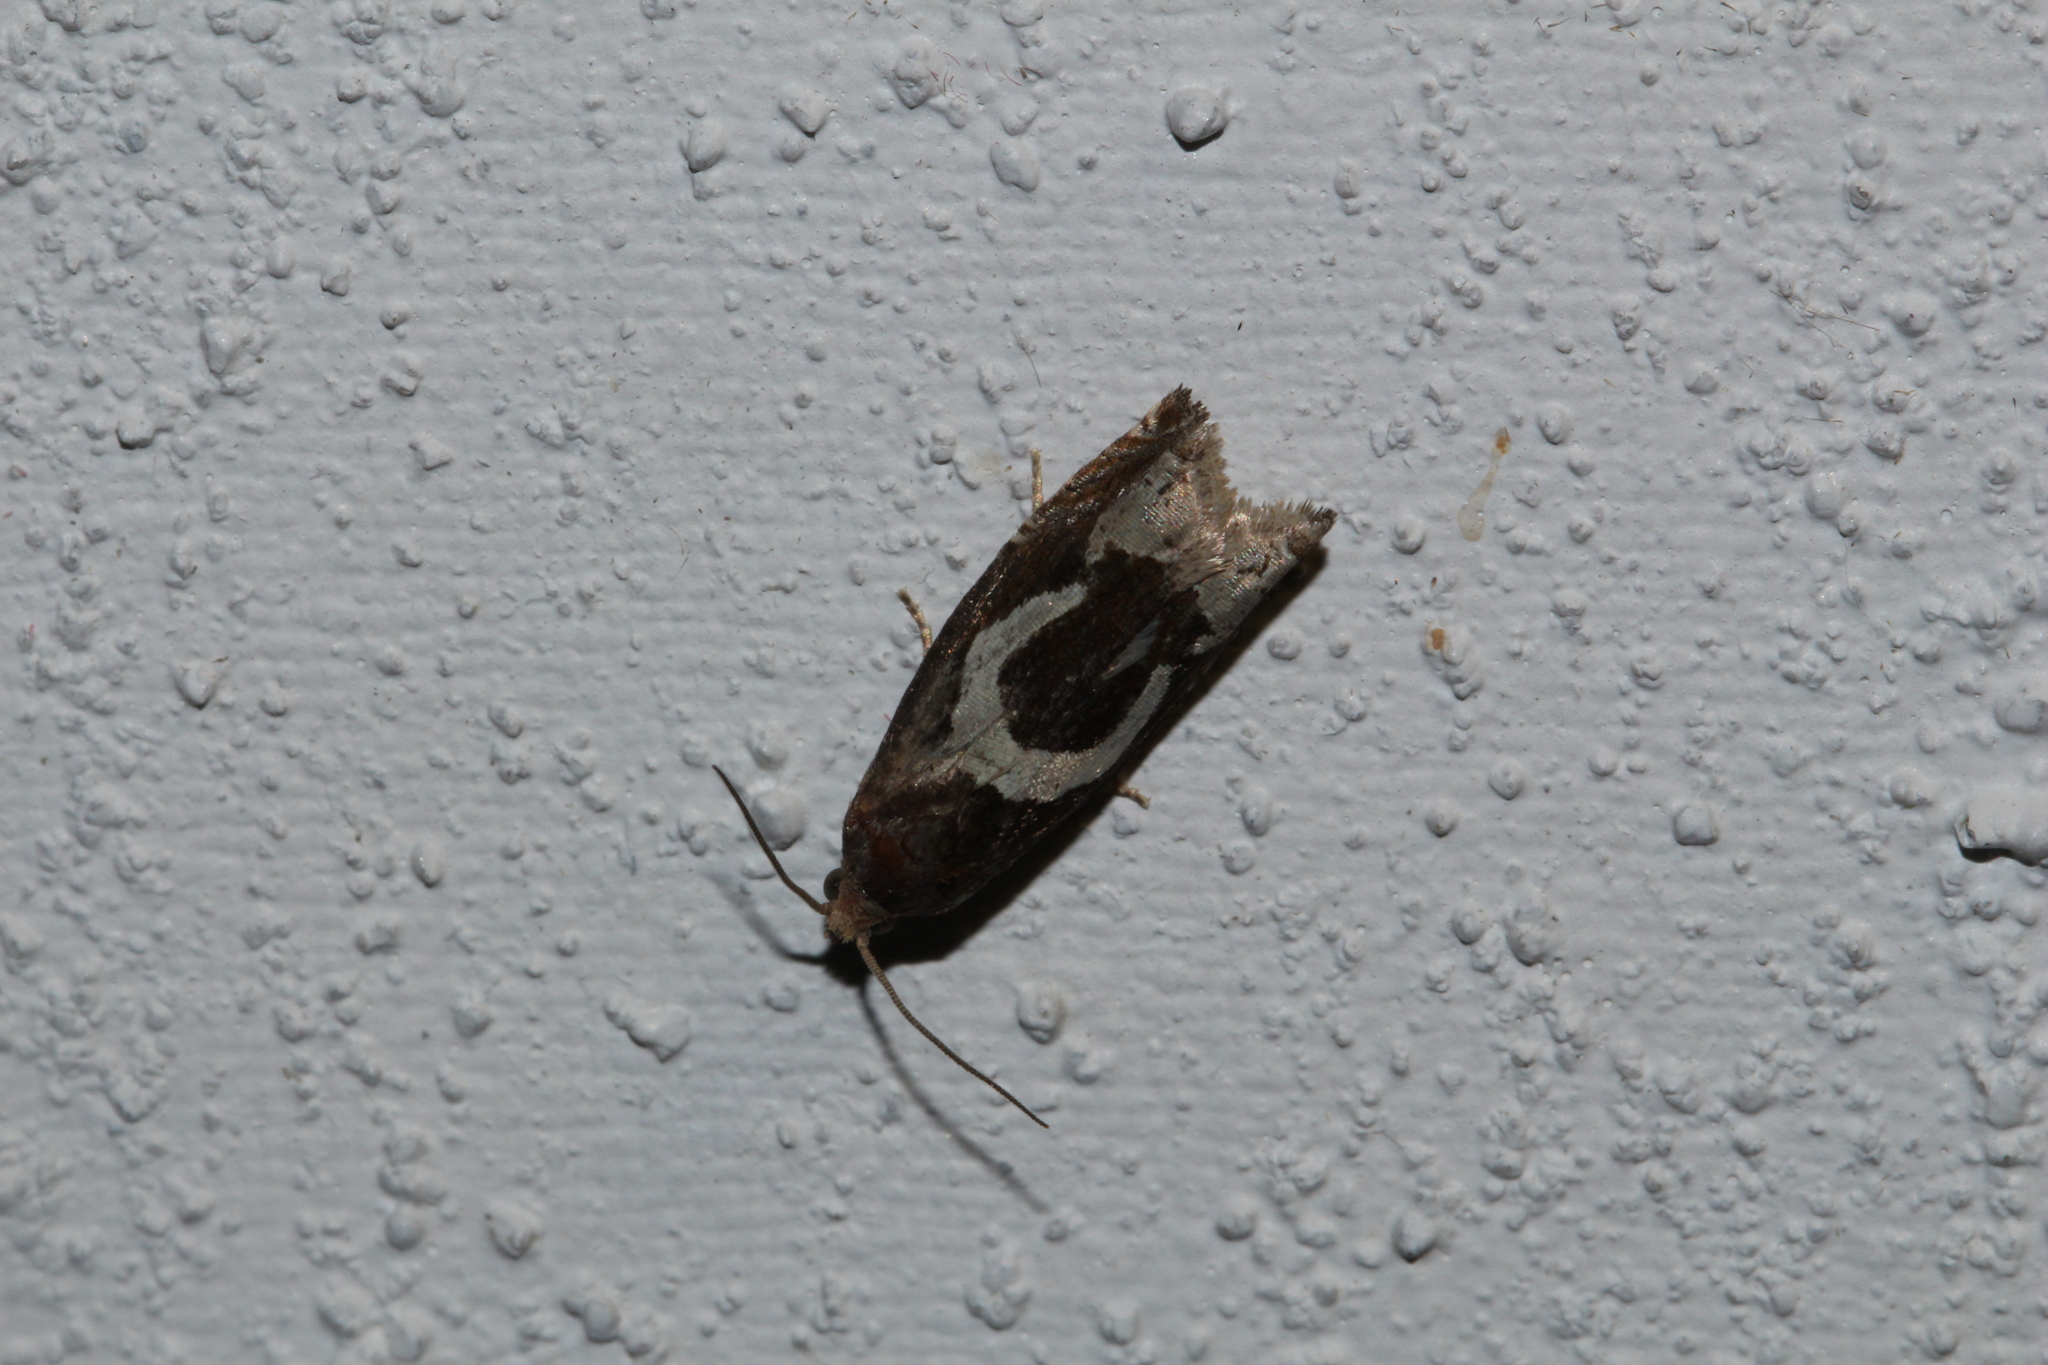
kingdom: Animalia
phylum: Arthropoda
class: Insecta
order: Lepidoptera
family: Tortricidae
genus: Epiblema
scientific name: Epiblema foenella
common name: White-foot bell
